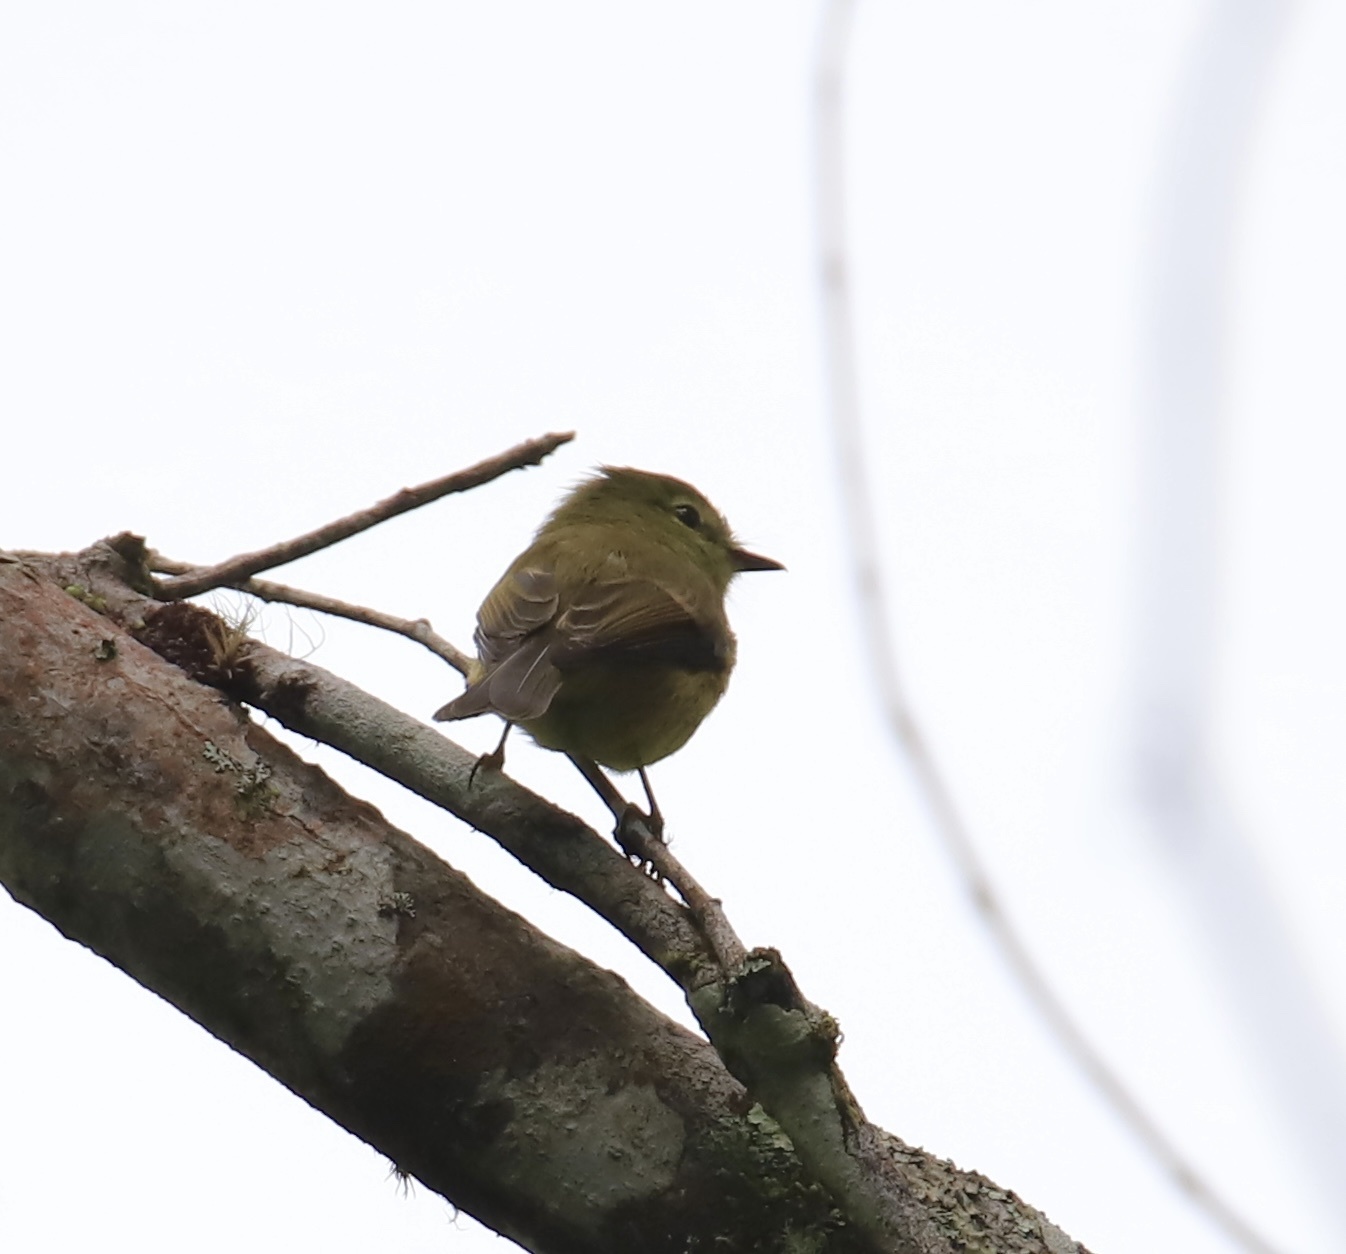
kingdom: Animalia
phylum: Chordata
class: Aves
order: Passeriformes
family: Tyrannidae
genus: Myiophobus
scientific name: Myiophobus flavicans
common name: Flavescent flycatcher
